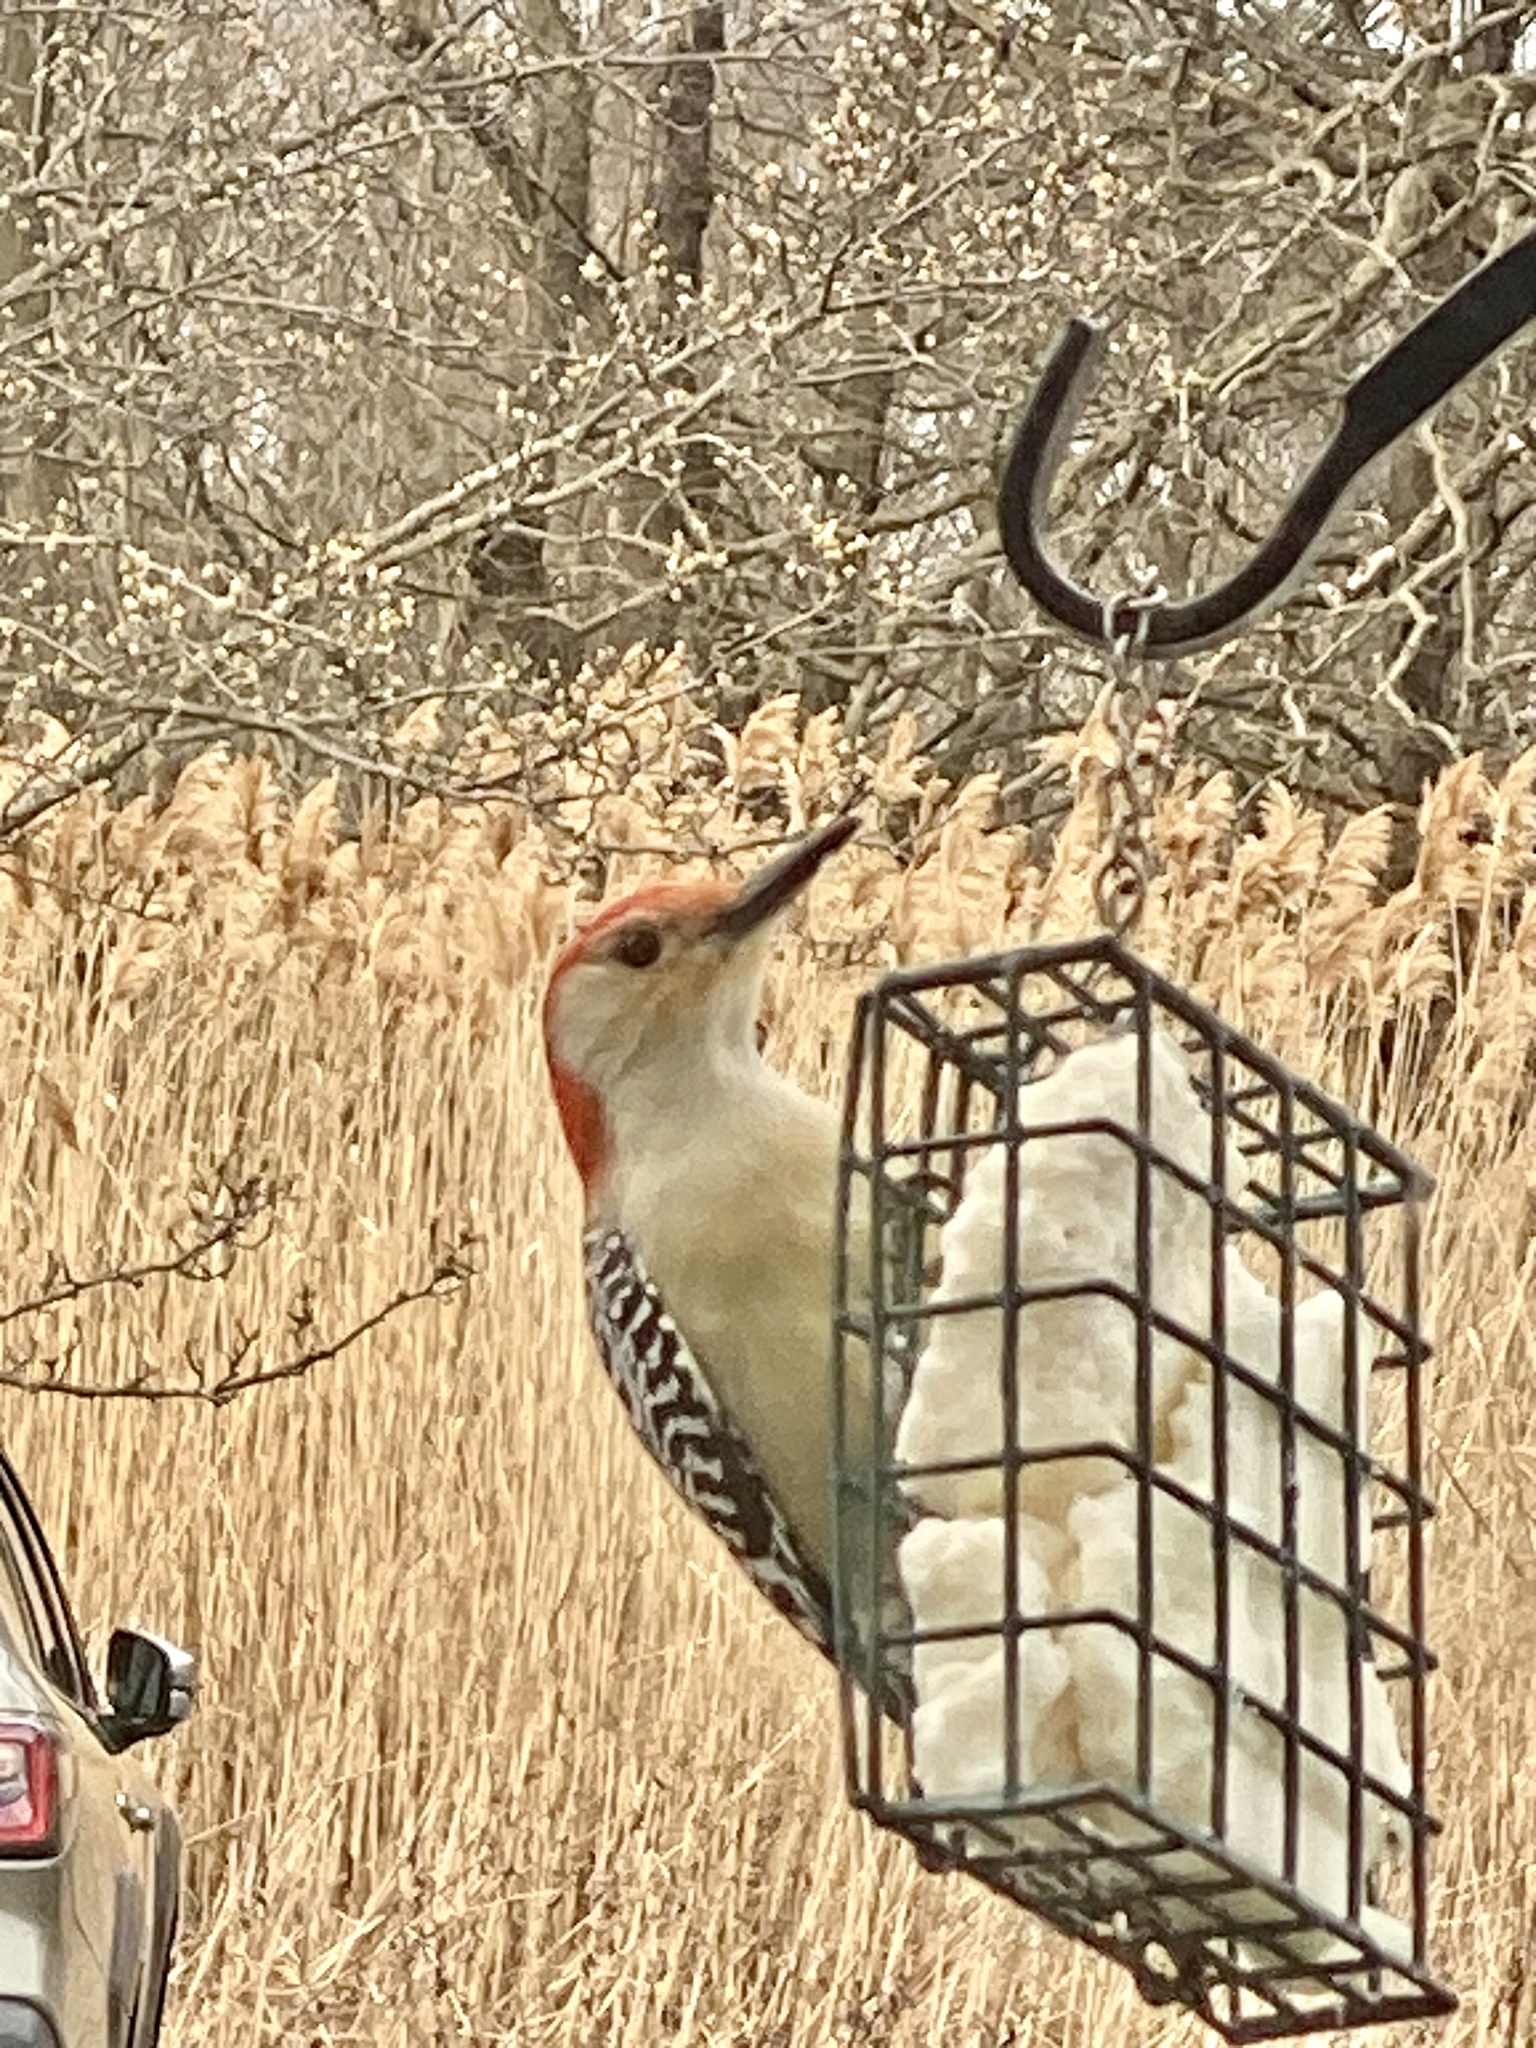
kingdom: Animalia
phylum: Chordata
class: Aves
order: Piciformes
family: Picidae
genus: Melanerpes
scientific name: Melanerpes carolinus
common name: Red-bellied woodpecker
